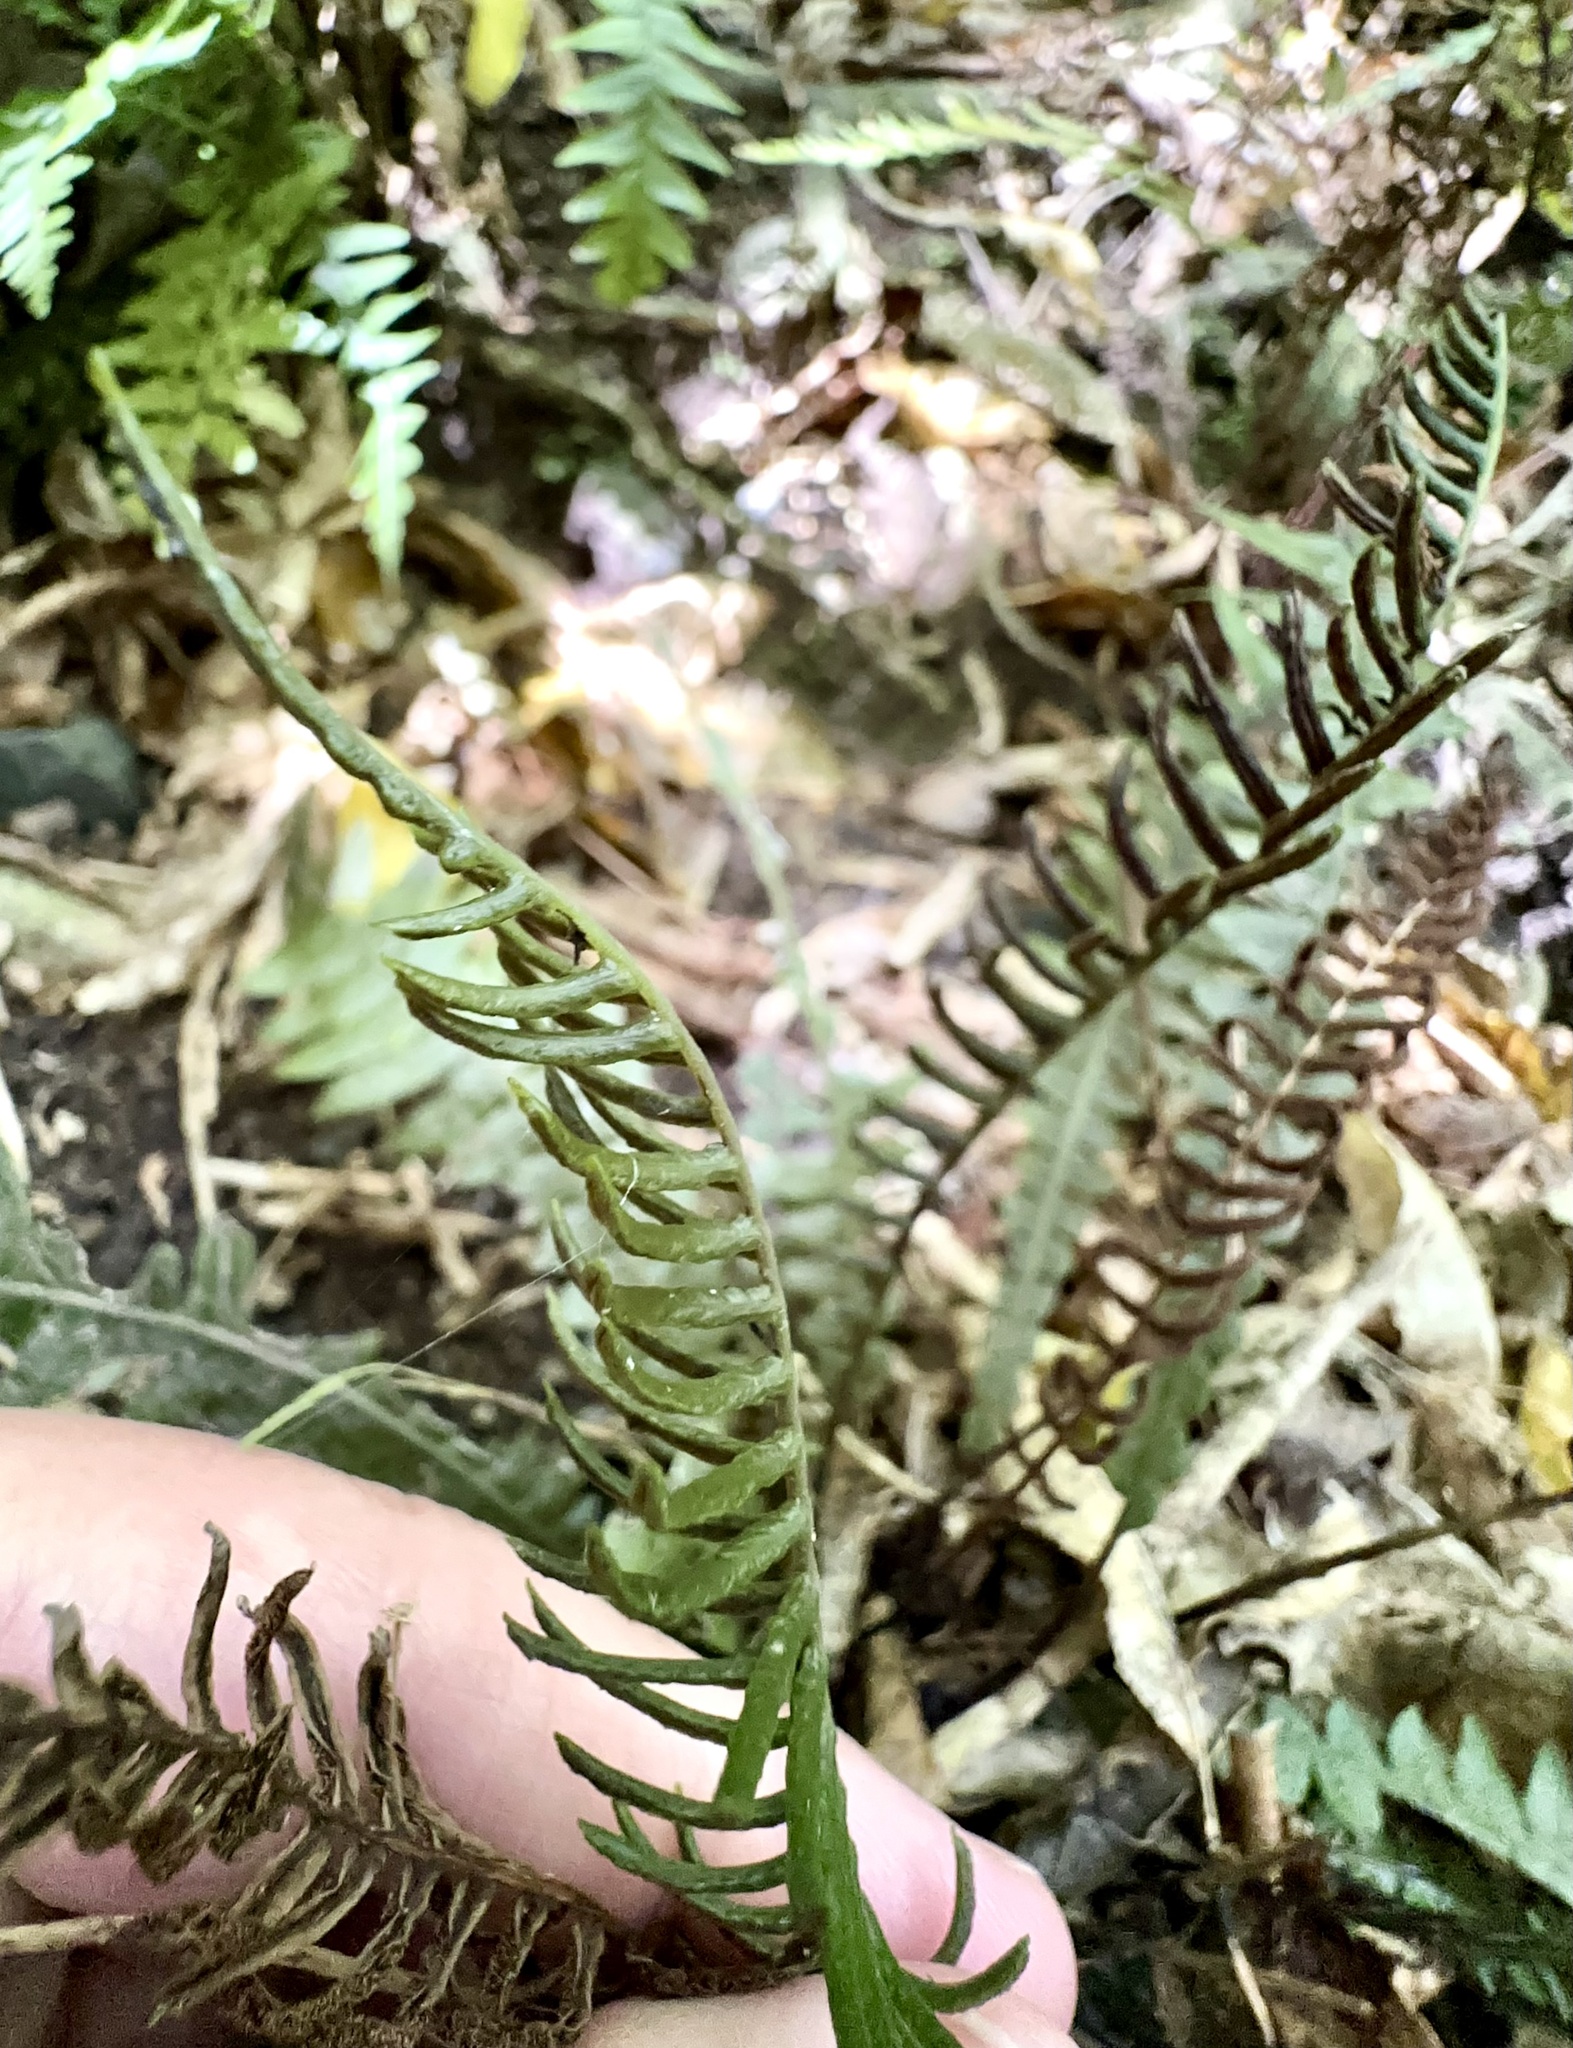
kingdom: Plantae
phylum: Tracheophyta
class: Polypodiopsida
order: Polypodiales
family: Blechnaceae
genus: Austroblechnum
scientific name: Austroblechnum lanceolatum
